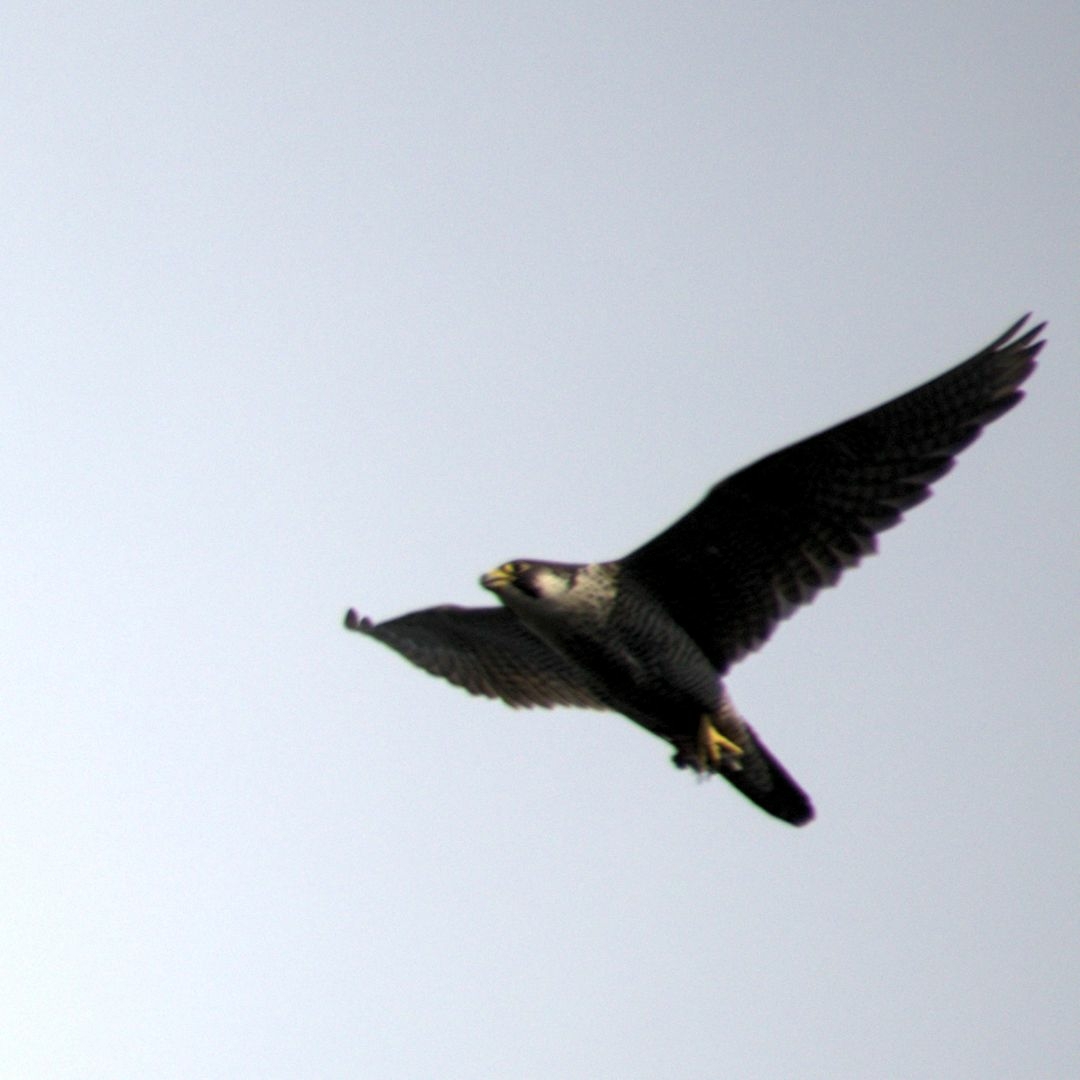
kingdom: Animalia
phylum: Chordata
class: Aves
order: Falconiformes
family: Falconidae
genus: Falco
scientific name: Falco peregrinus
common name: Peregrine falcon
